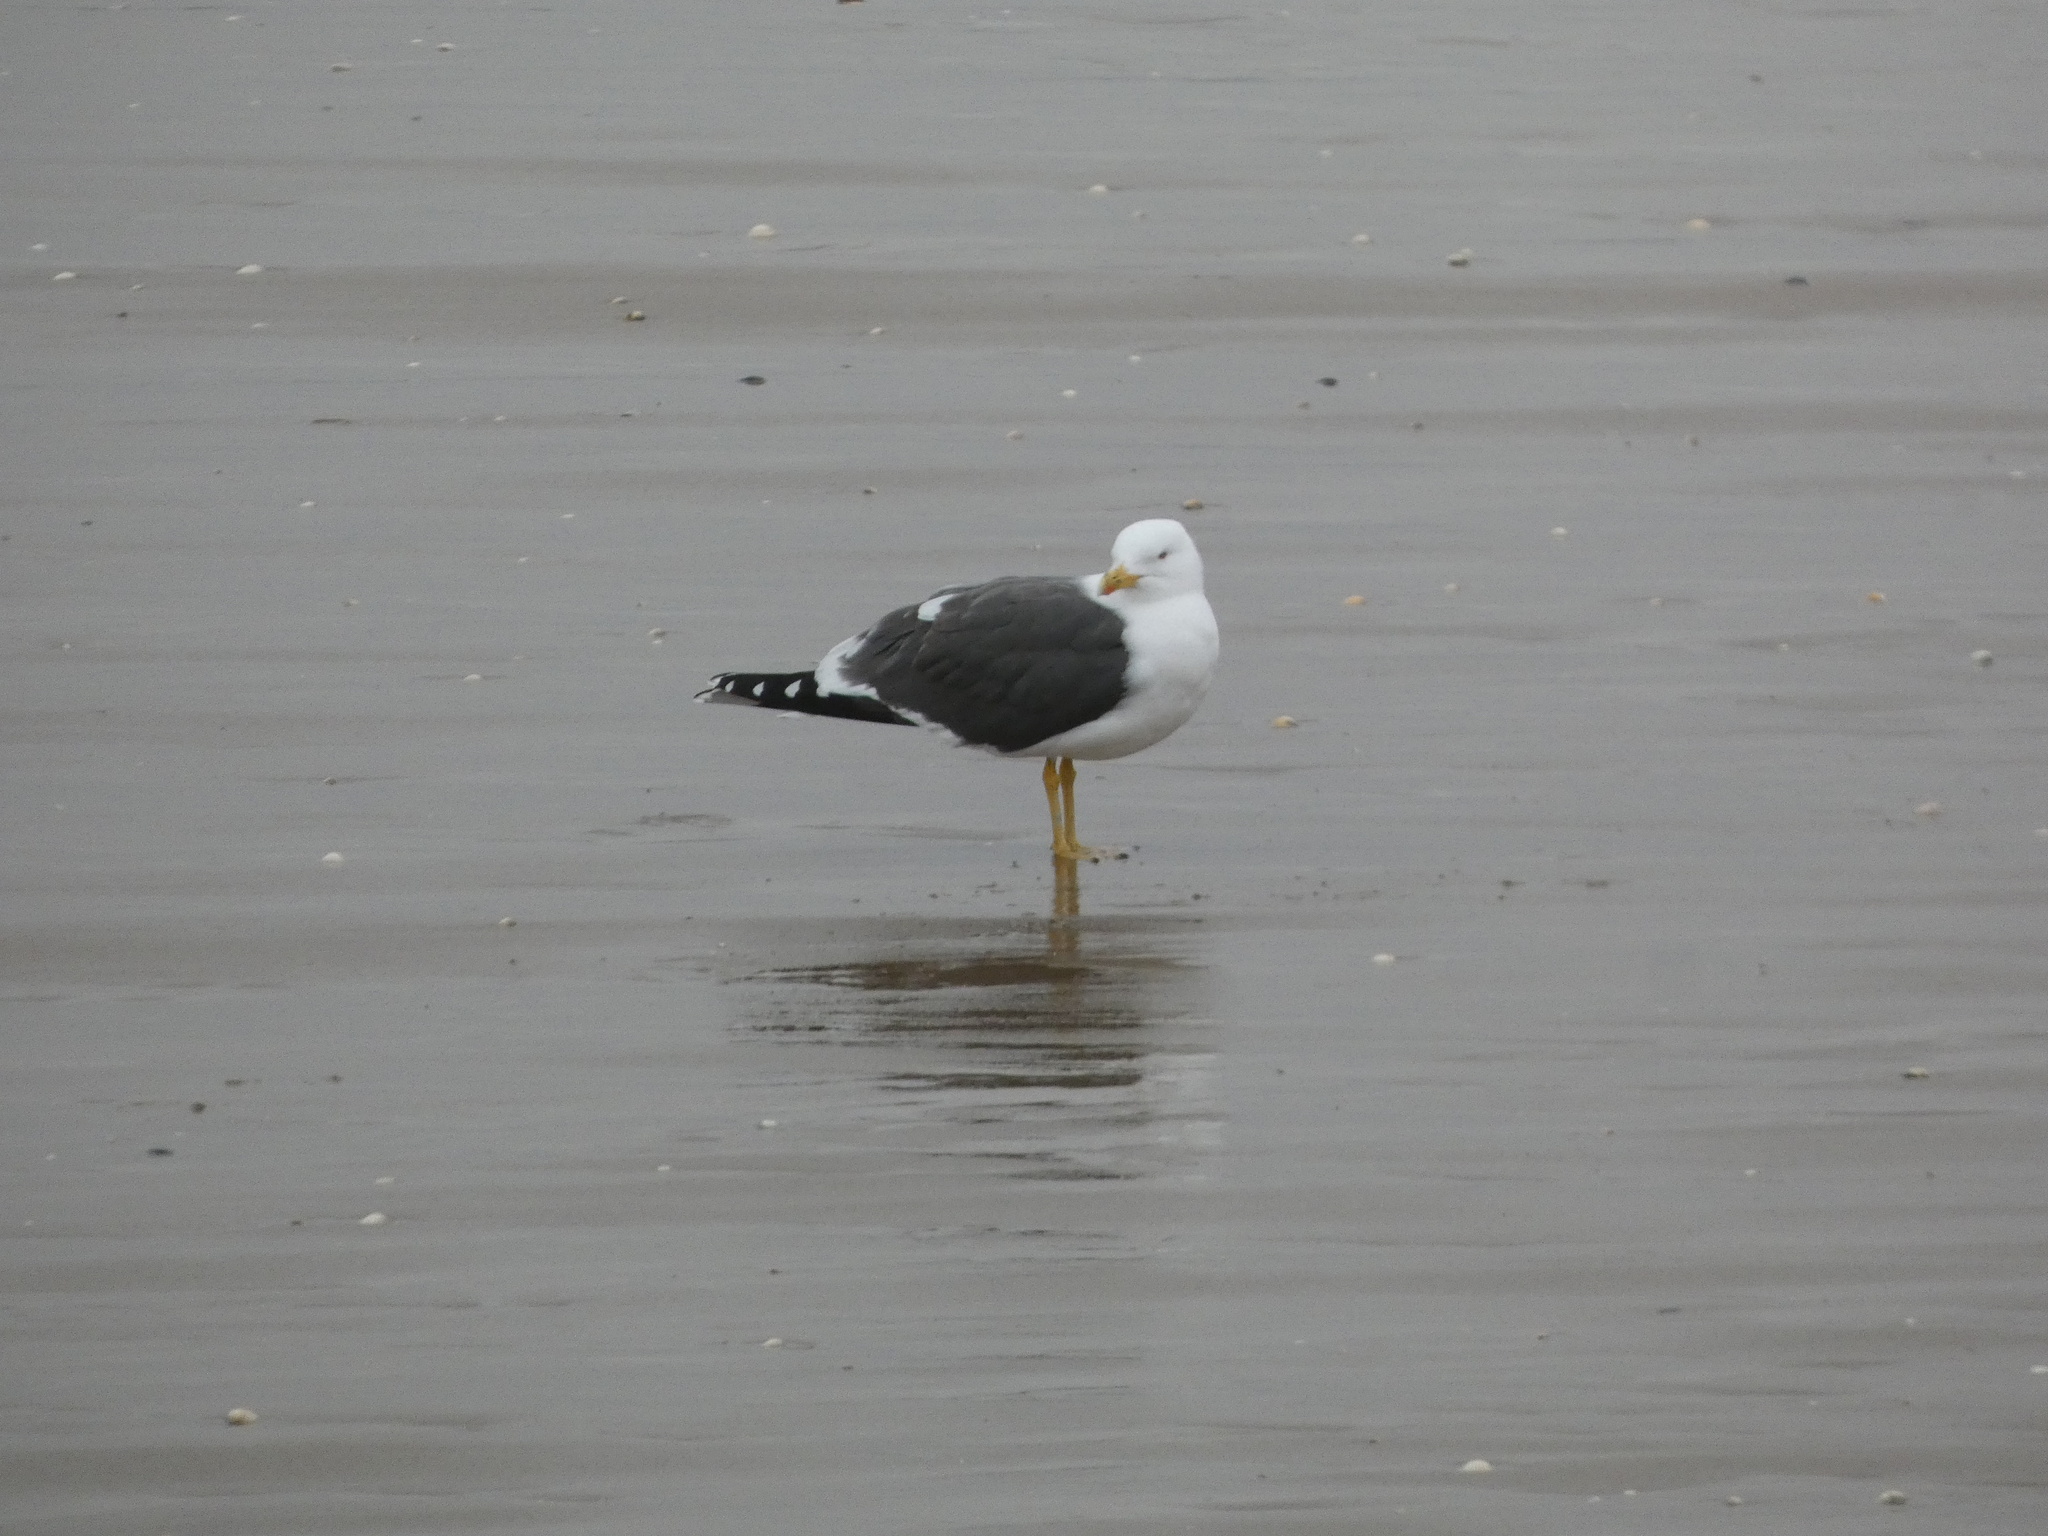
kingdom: Animalia
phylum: Chordata
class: Aves
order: Charadriiformes
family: Laridae
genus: Larus
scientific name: Larus fuscus
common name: Lesser black-backed gull
